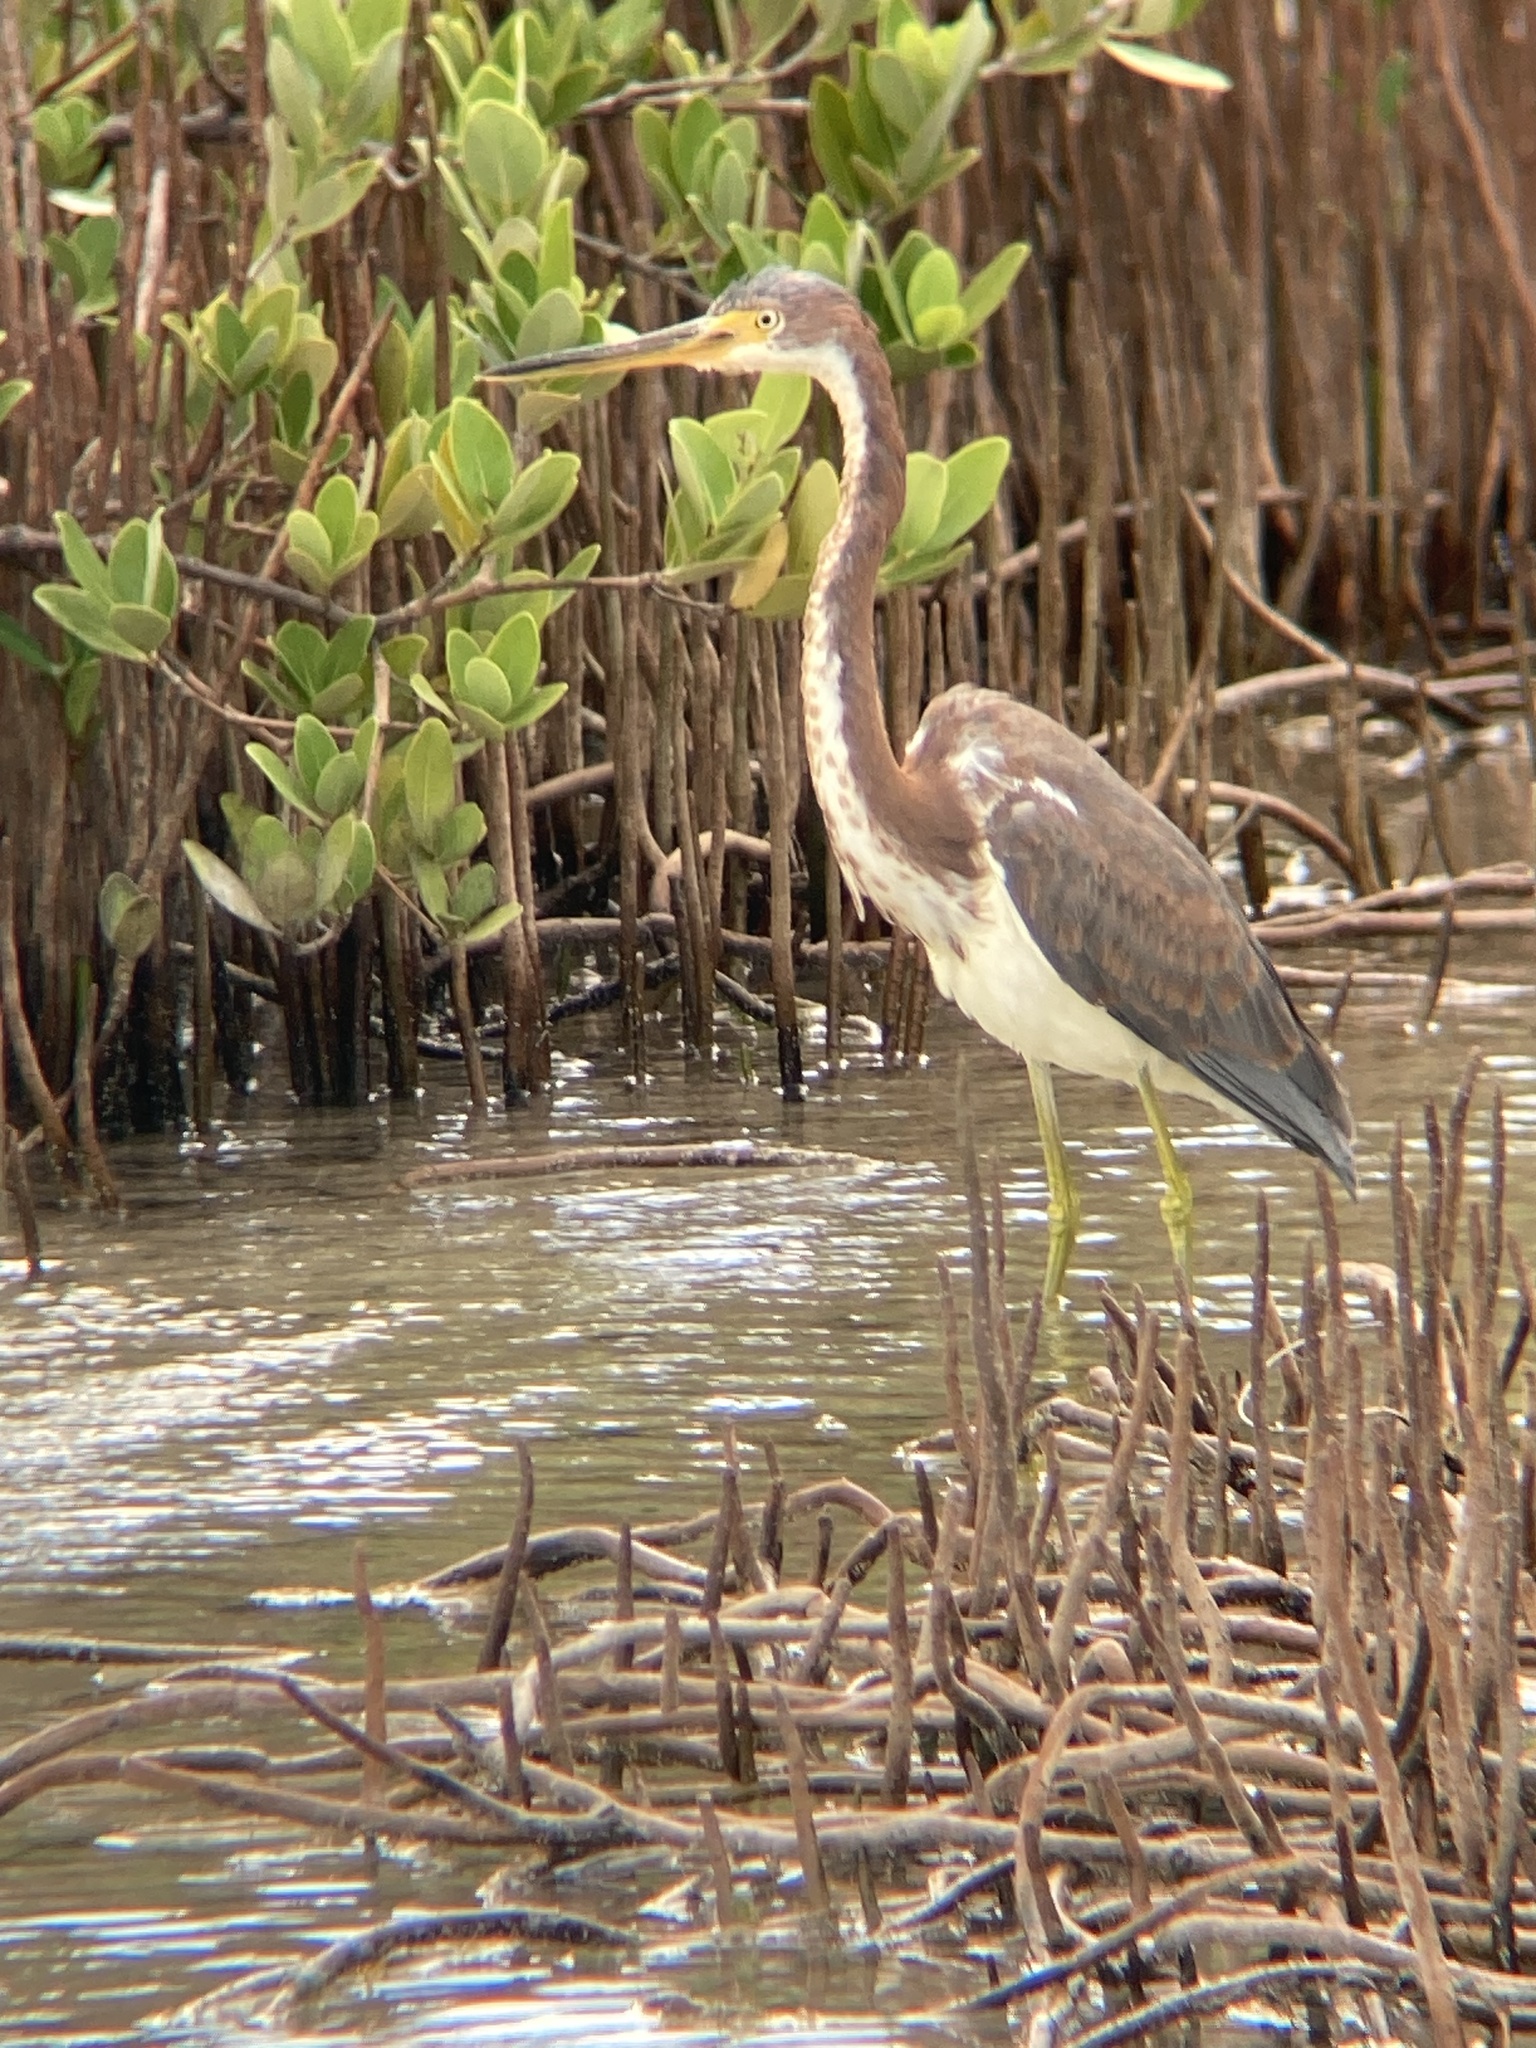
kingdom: Animalia
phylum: Chordata
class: Aves
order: Pelecaniformes
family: Ardeidae
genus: Egretta
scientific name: Egretta tricolor
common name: Tricolored heron
